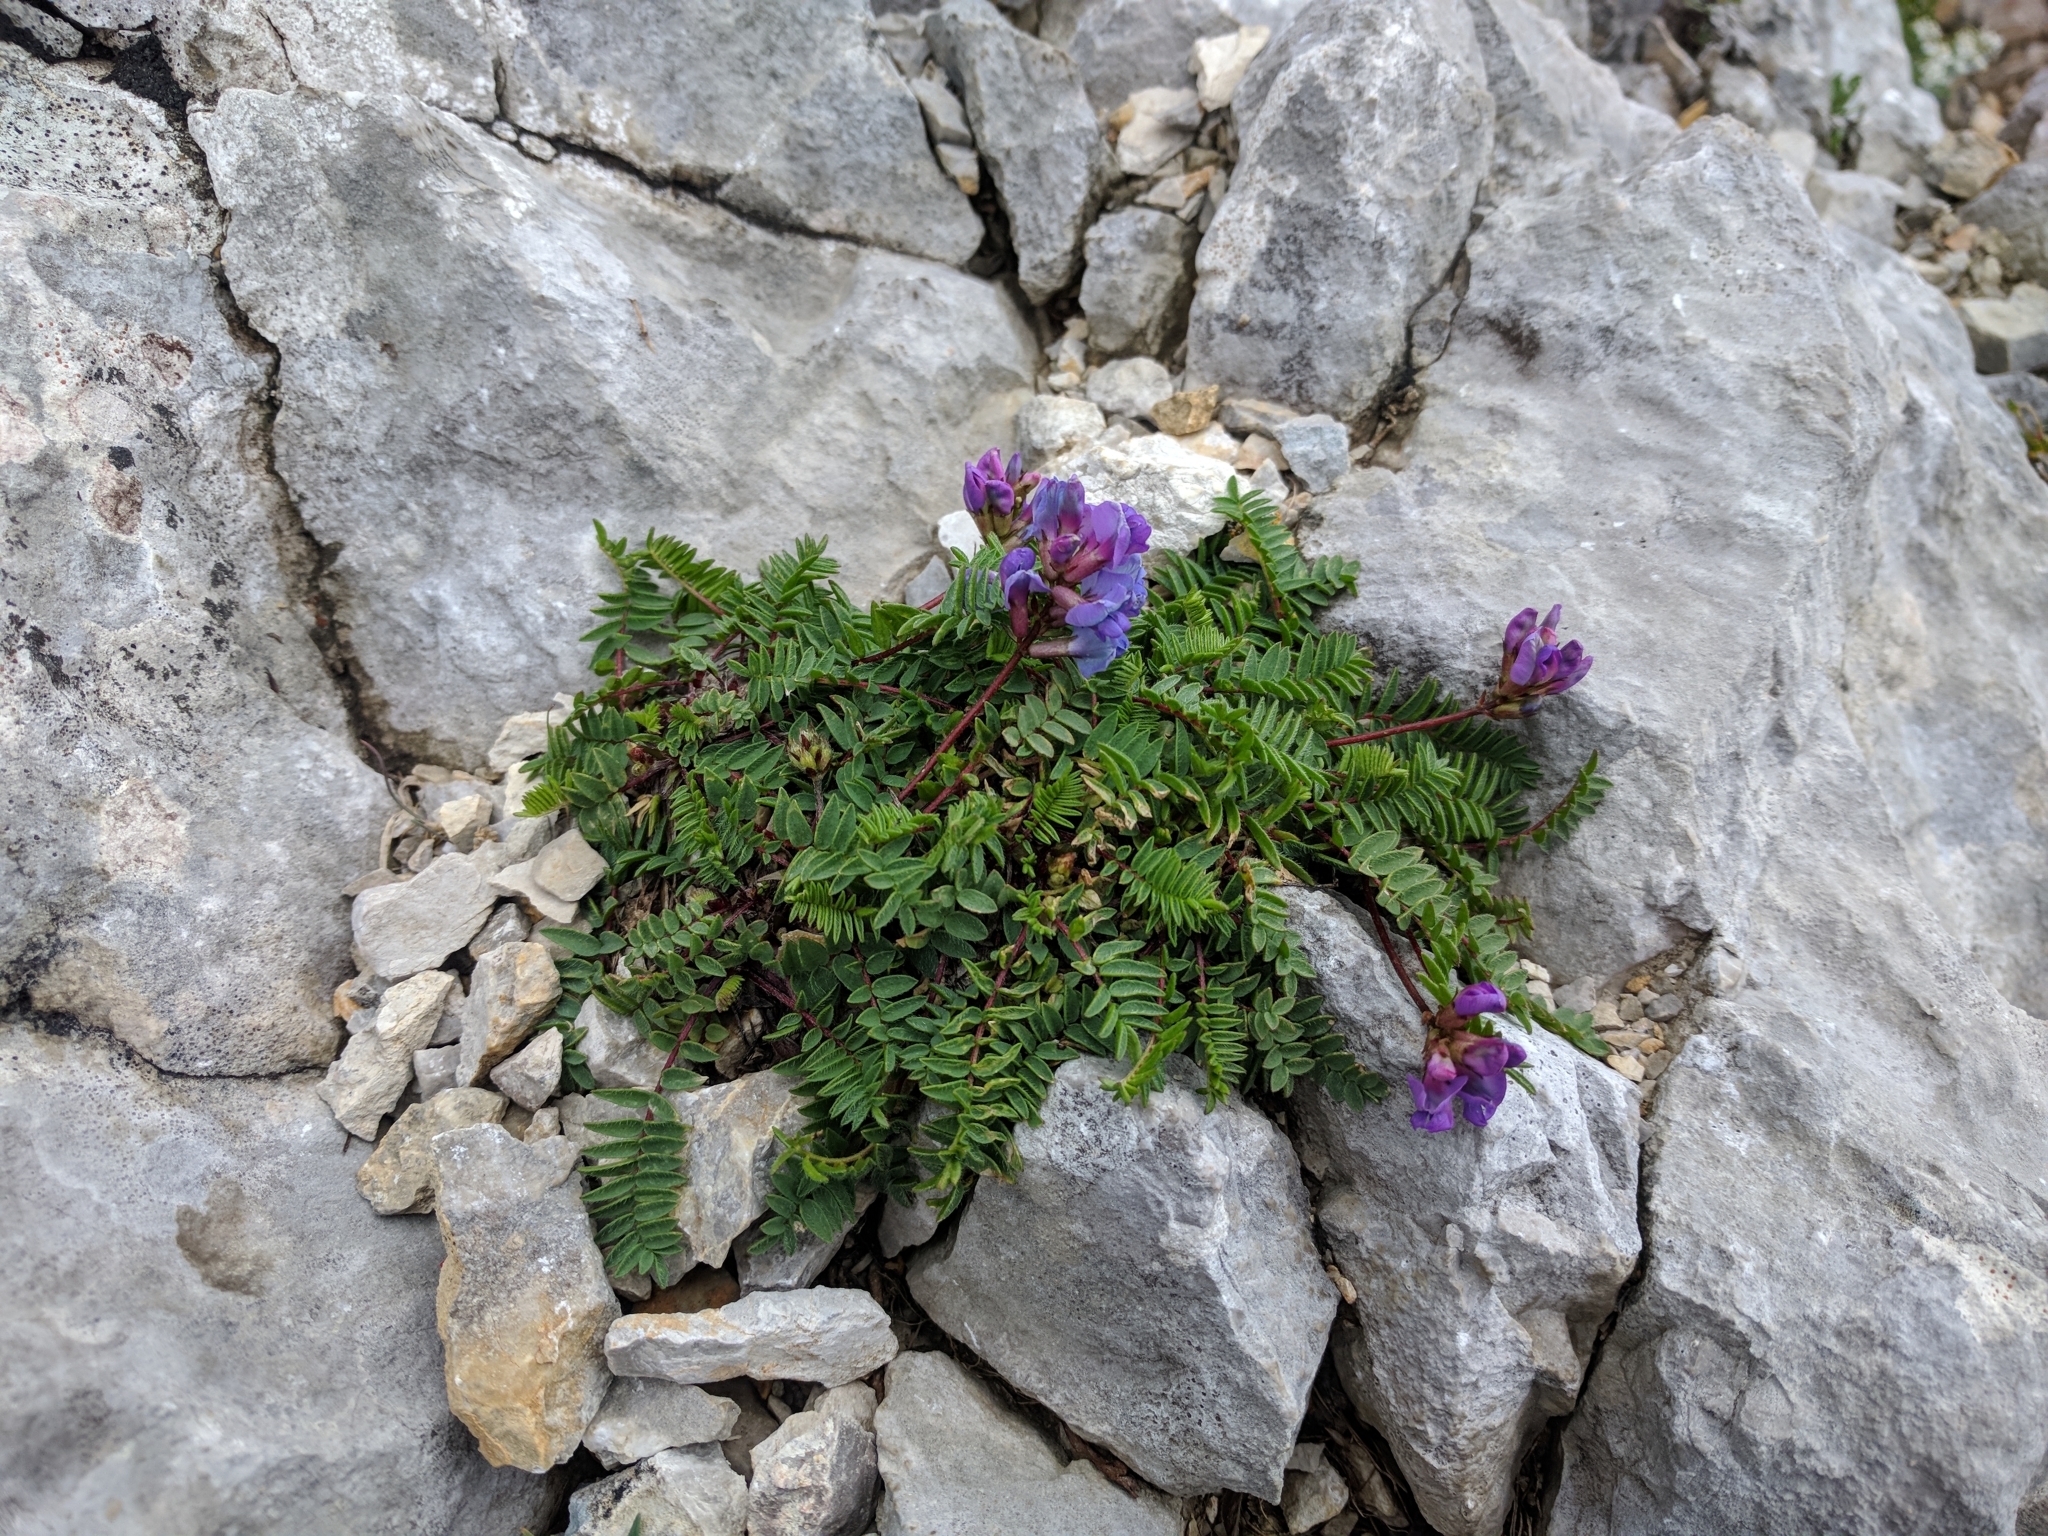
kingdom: Plantae
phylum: Tracheophyta
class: Magnoliopsida
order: Fabales
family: Fabaceae
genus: Oxytropis
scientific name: Oxytropis montana
